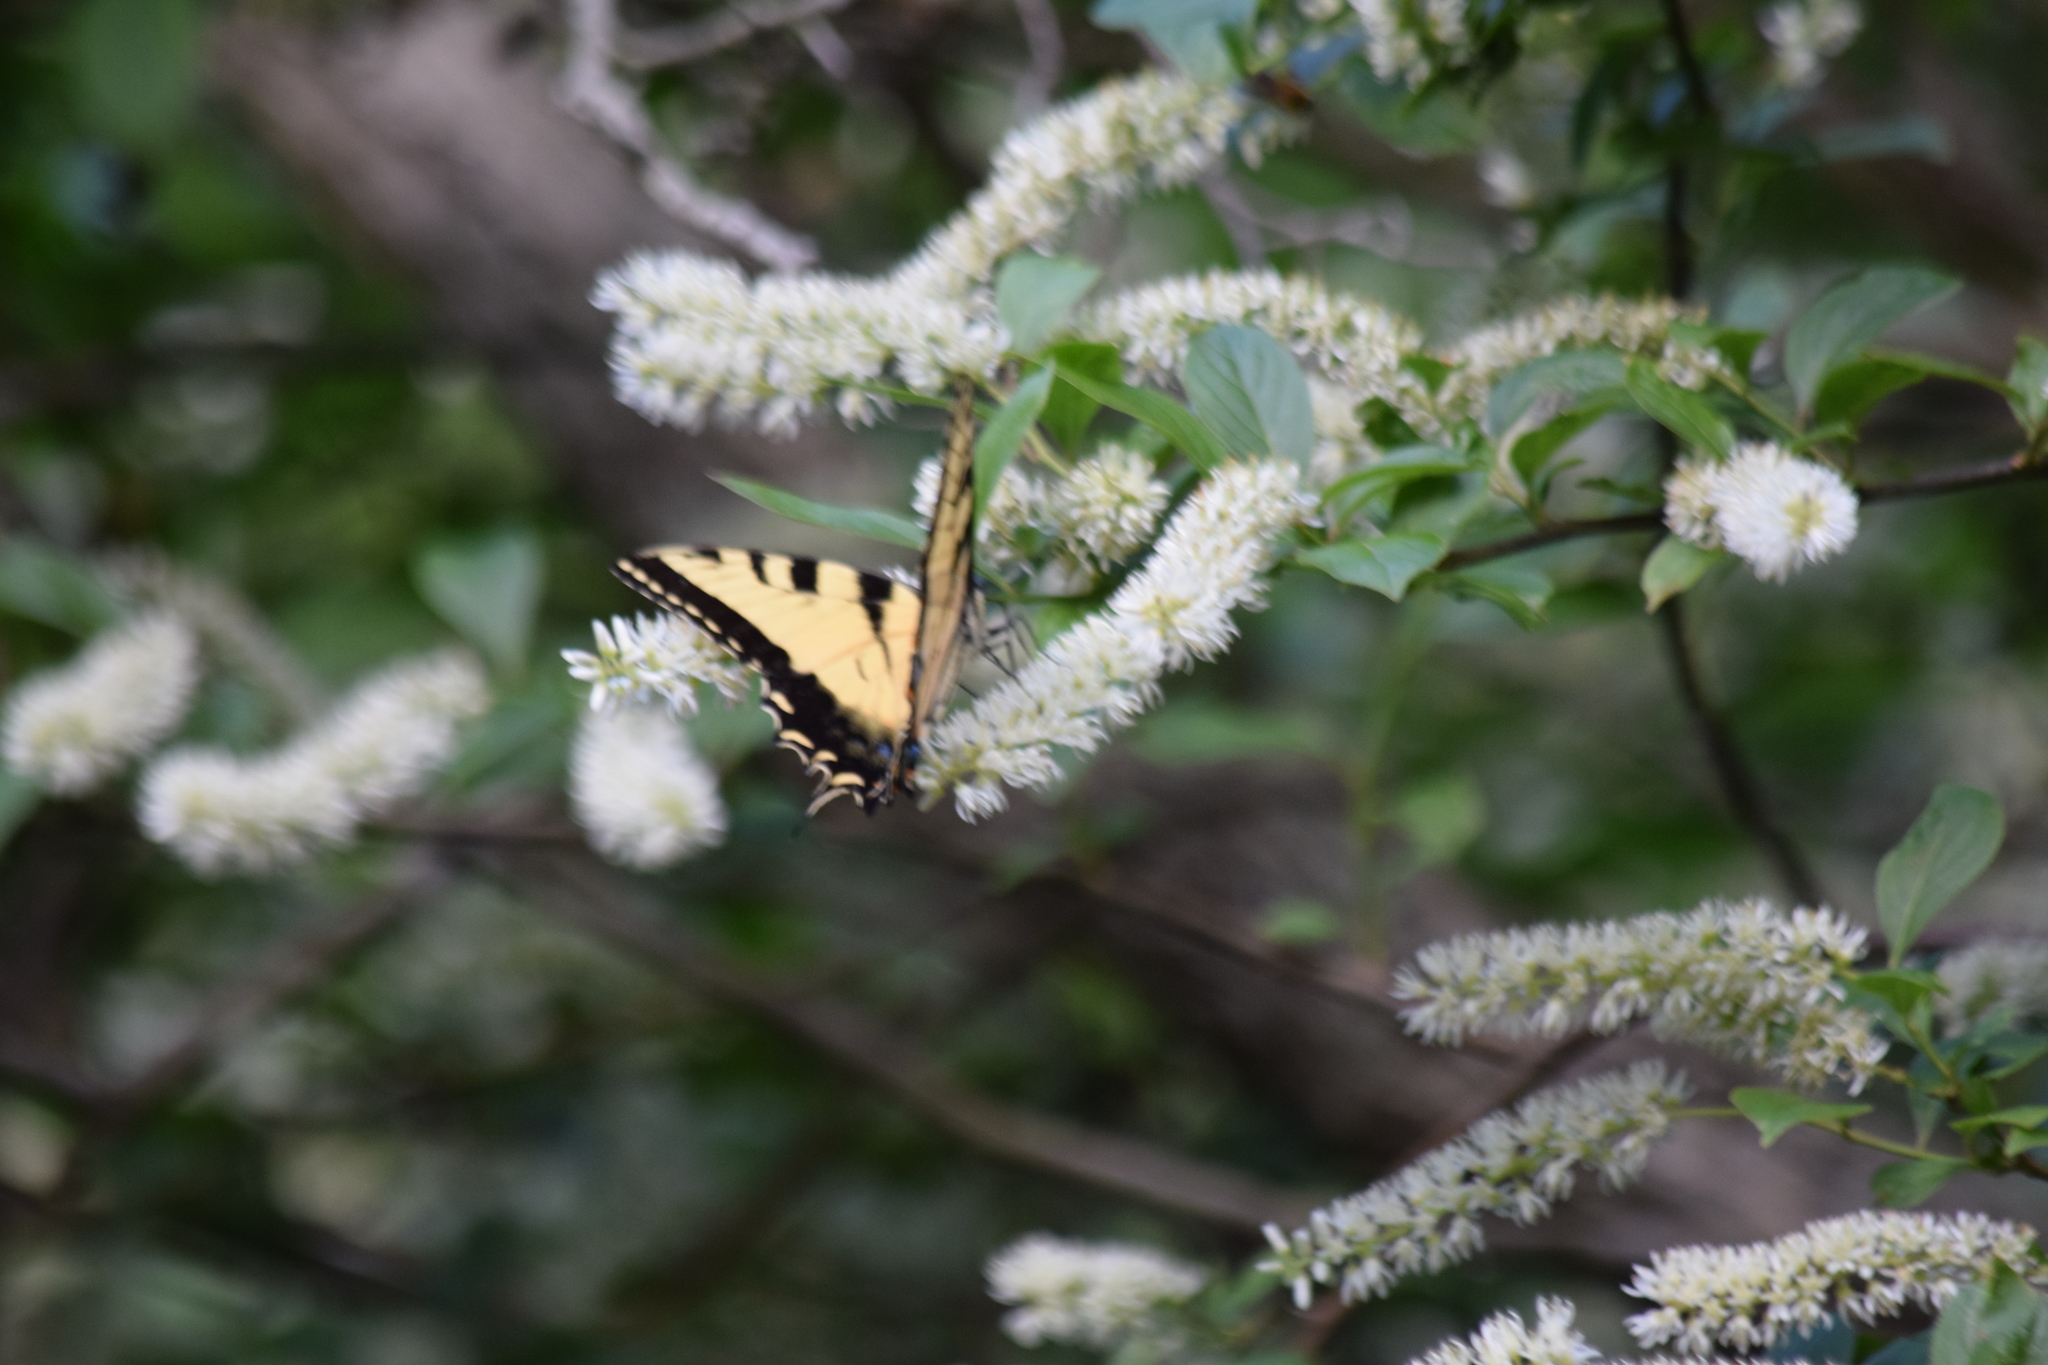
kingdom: Animalia
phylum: Arthropoda
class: Insecta
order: Lepidoptera
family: Papilionidae
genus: Papilio
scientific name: Papilio glaucus
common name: Tiger swallowtail
